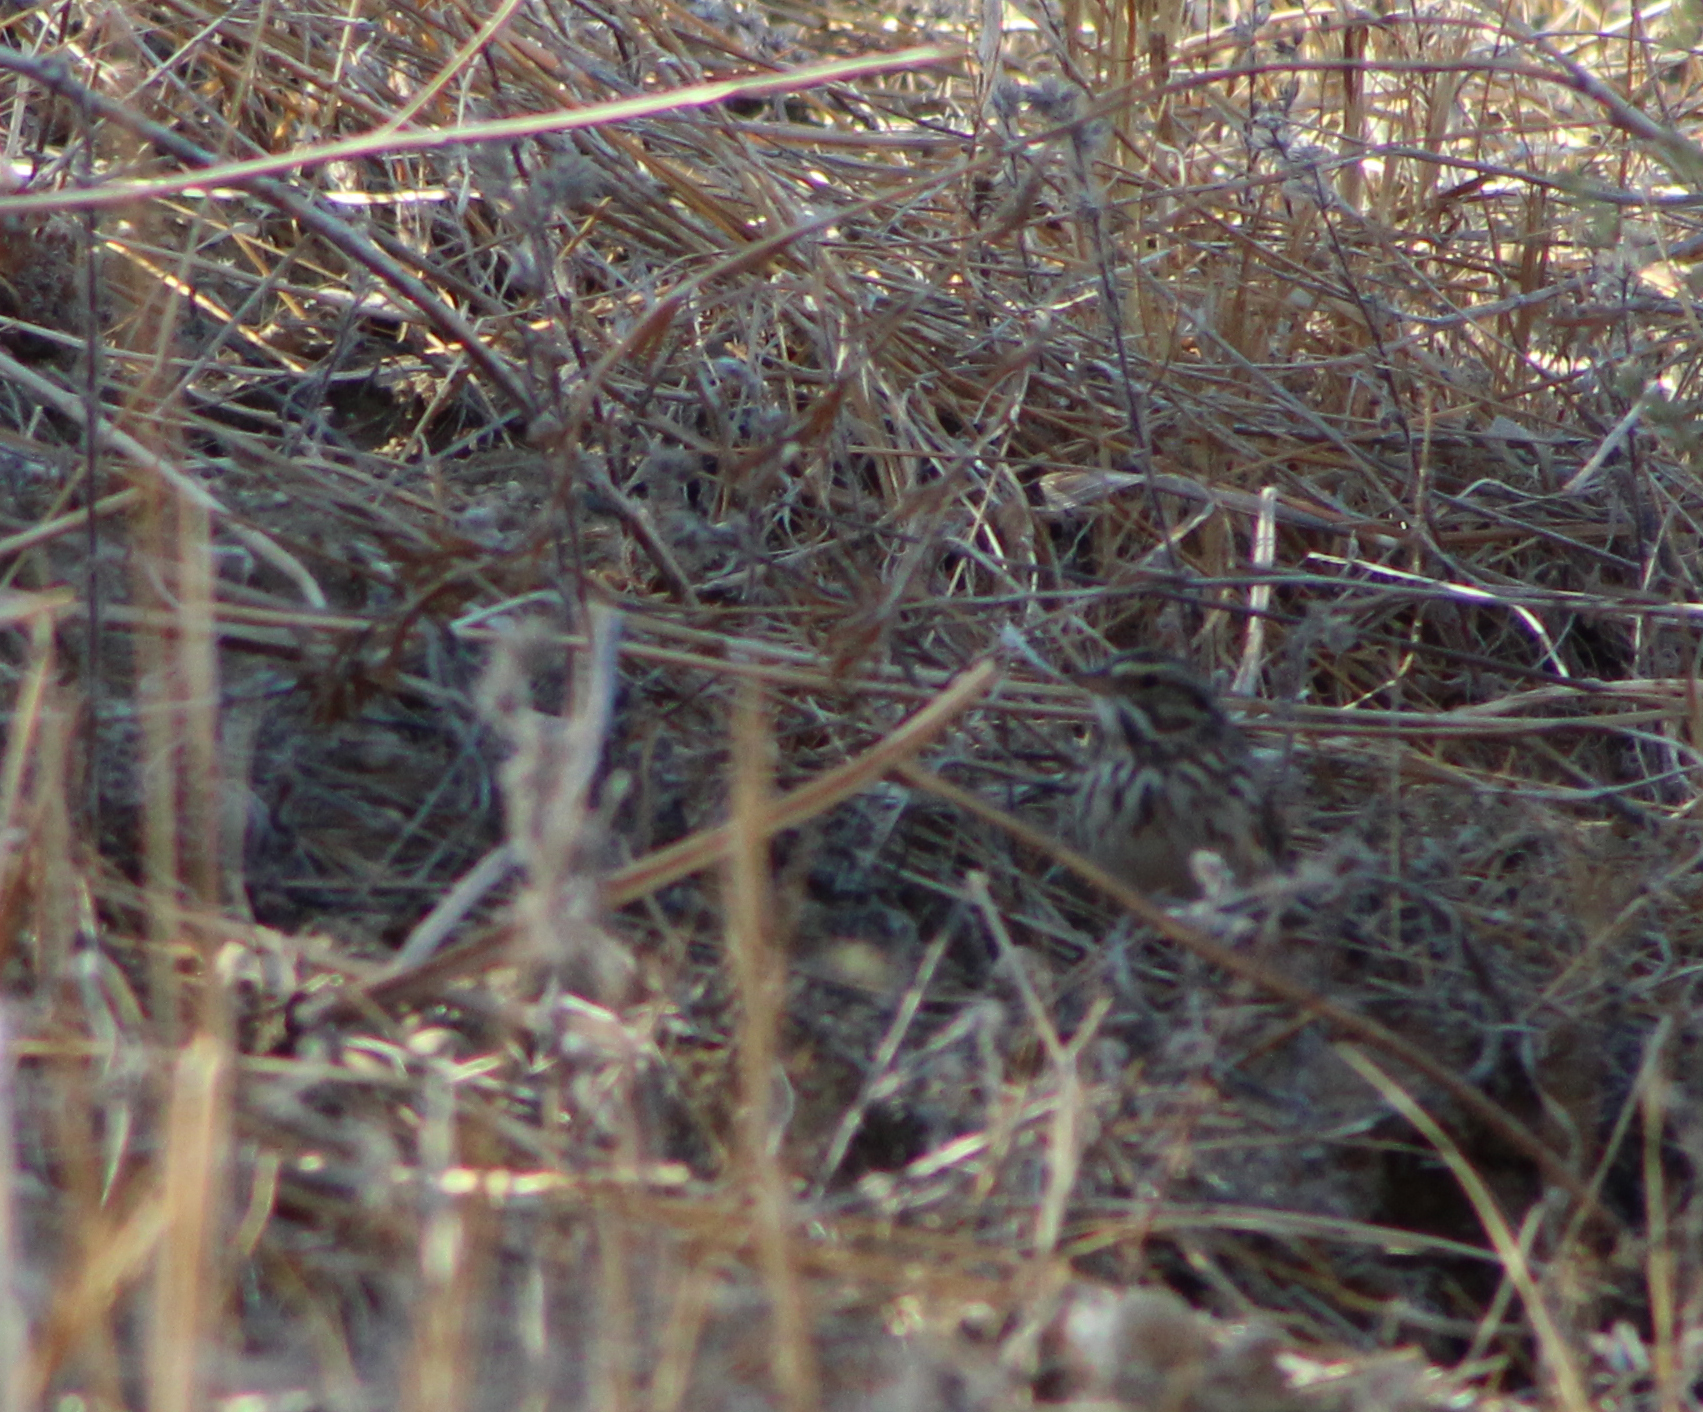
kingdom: Animalia
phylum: Chordata
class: Aves
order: Passeriformes
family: Passerellidae
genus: Passerculus
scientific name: Passerculus sandwichensis
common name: Savannah sparrow
